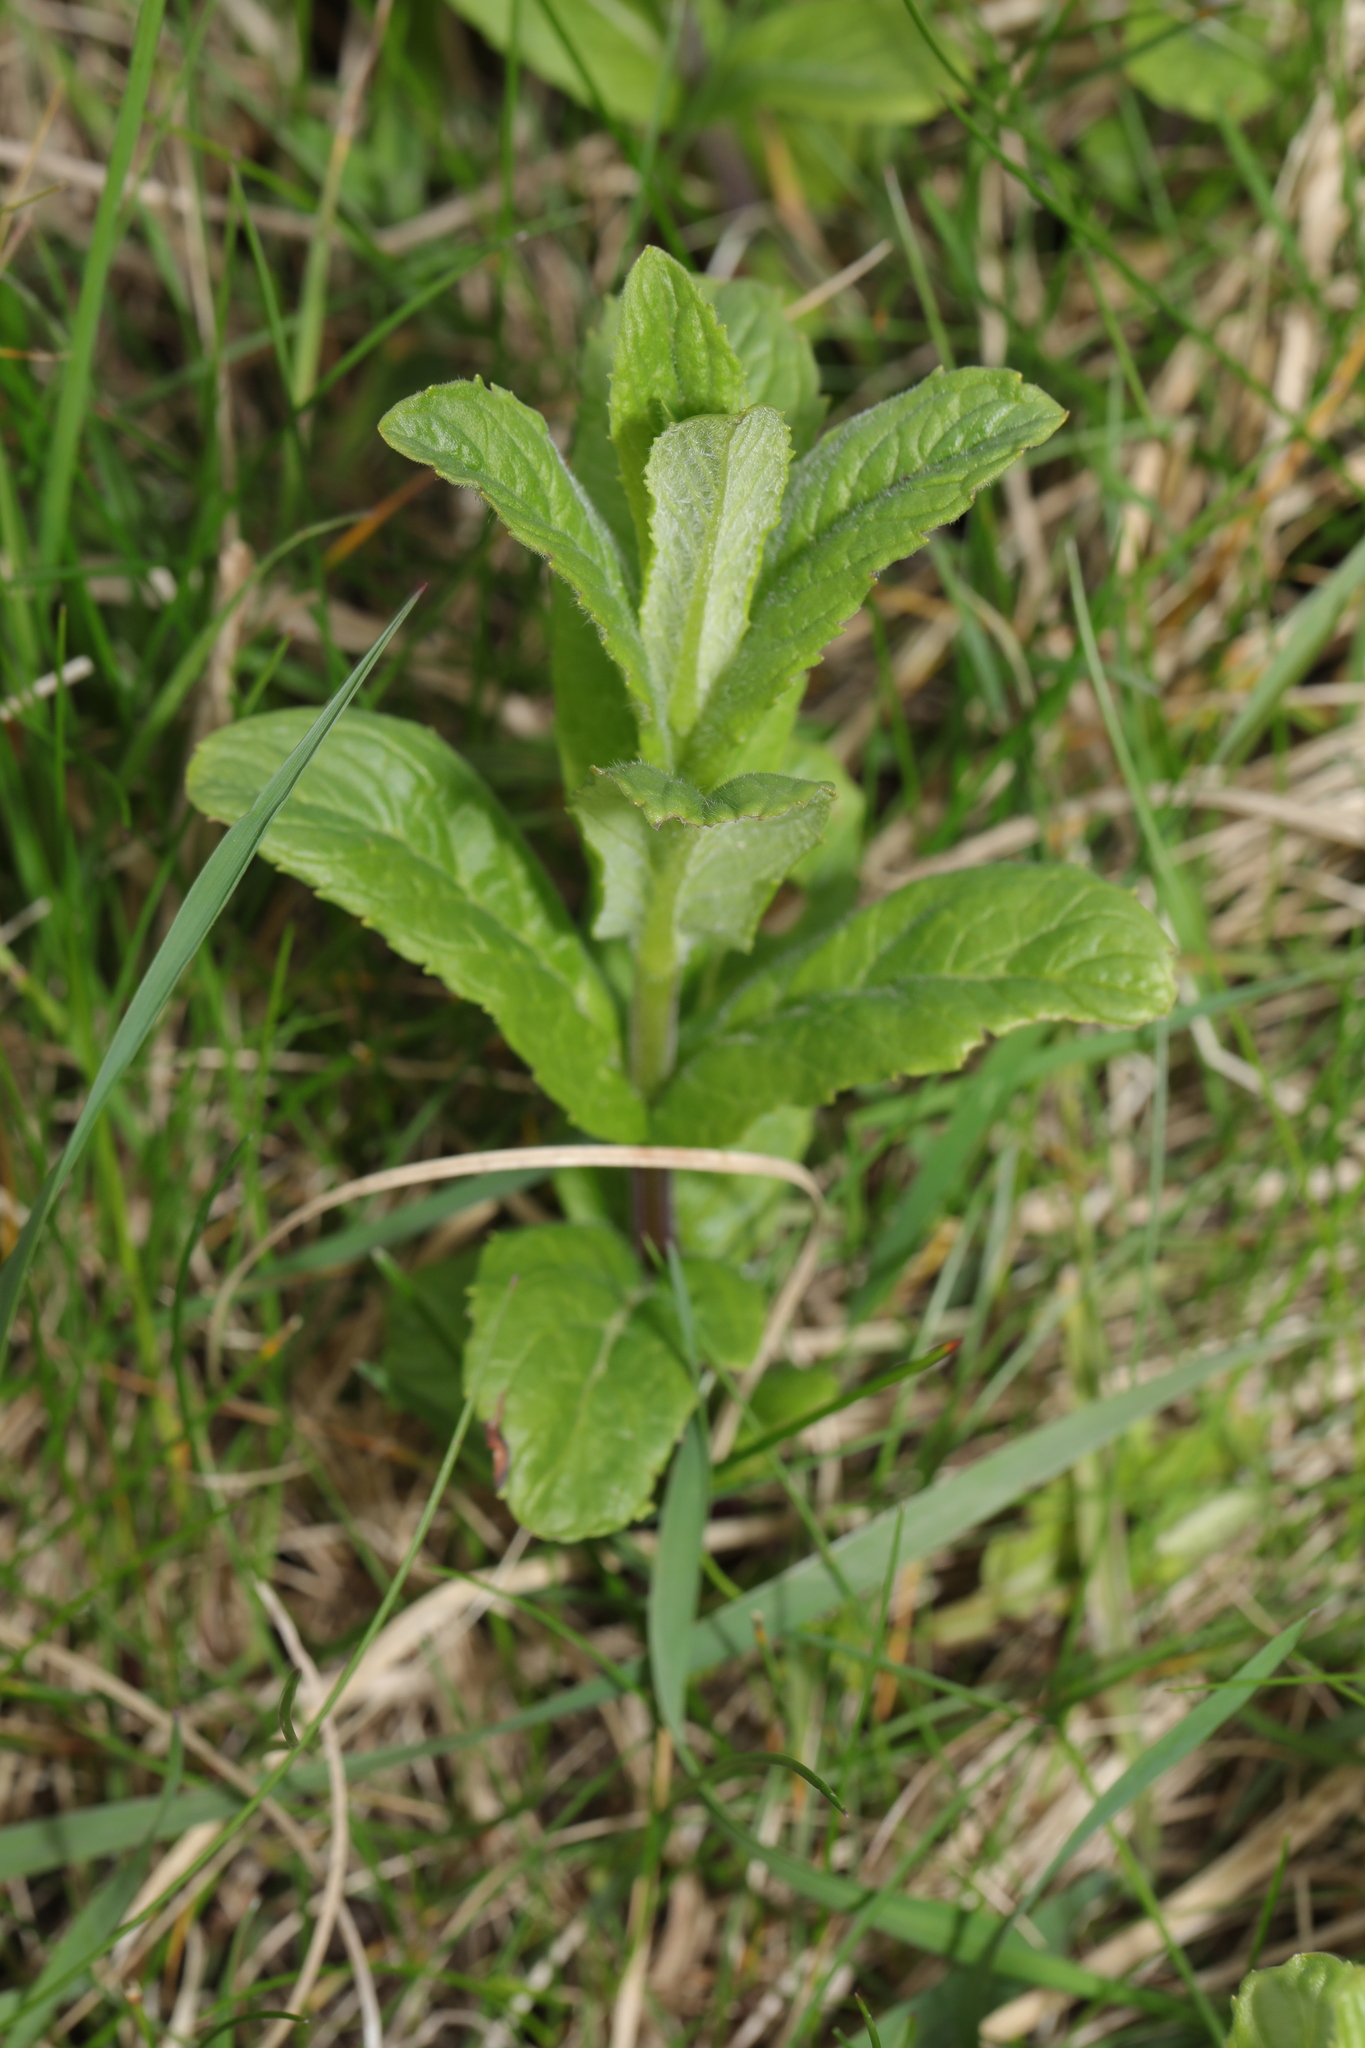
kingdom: Plantae
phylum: Tracheophyta
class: Magnoliopsida
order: Lamiales
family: Lamiaceae
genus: Mentha
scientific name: Mentha spicata
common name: Spearmint
